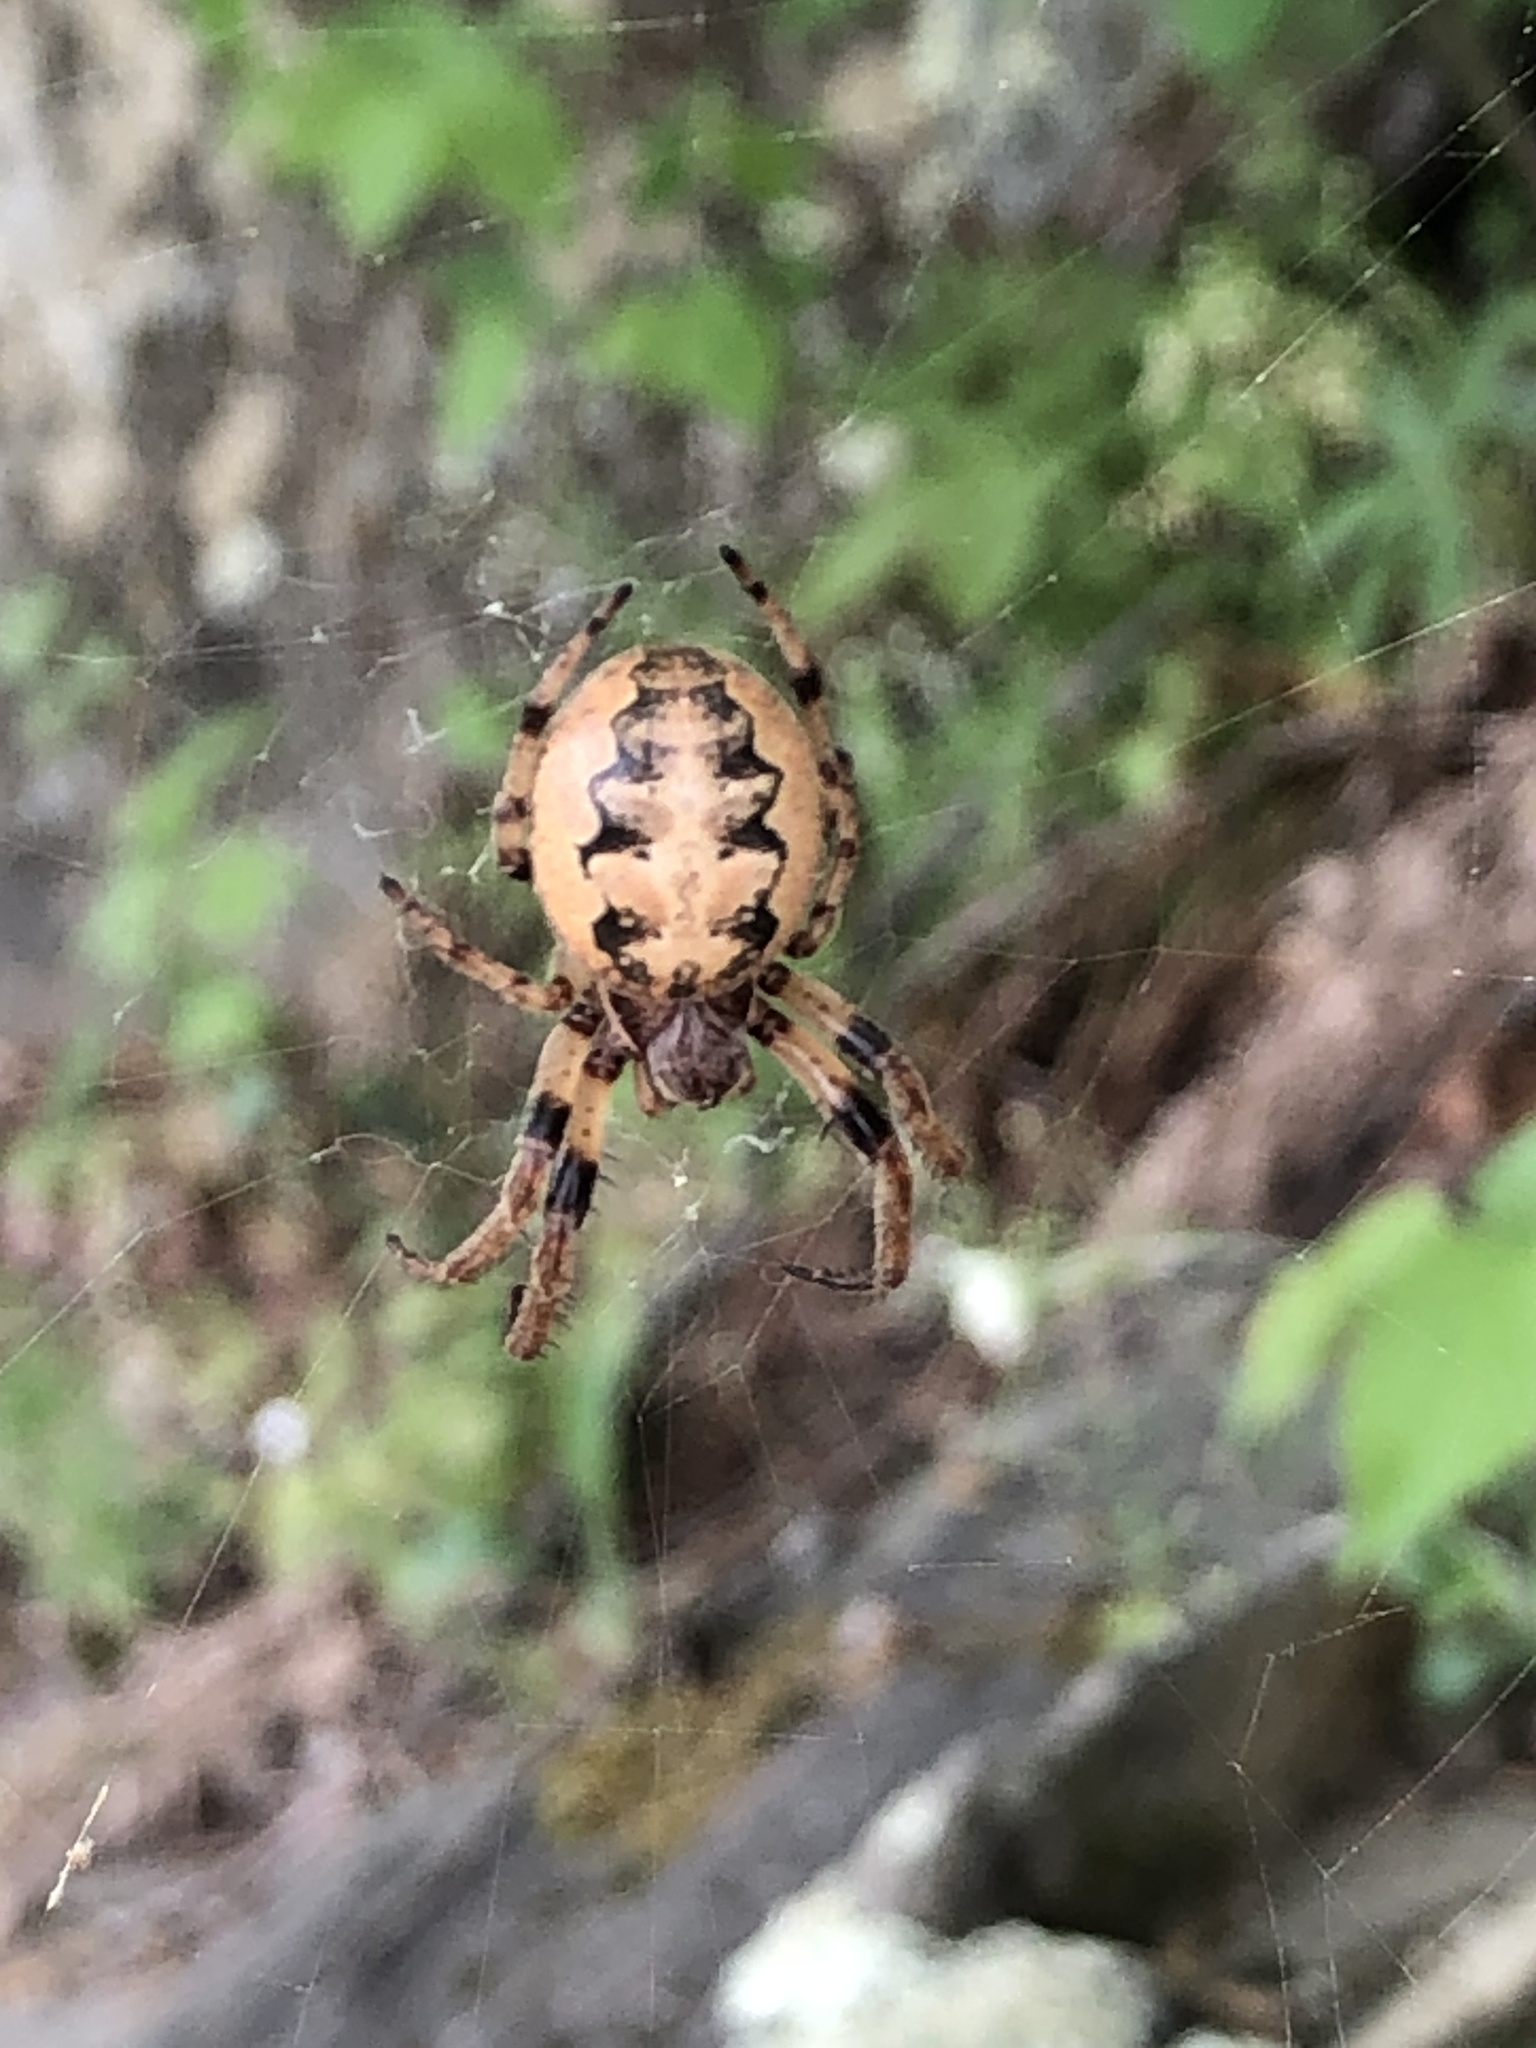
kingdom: Animalia
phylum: Arthropoda
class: Arachnida
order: Araneae
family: Araneidae
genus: Larinioides
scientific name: Larinioides cornutus
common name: Furrow orbweaver
